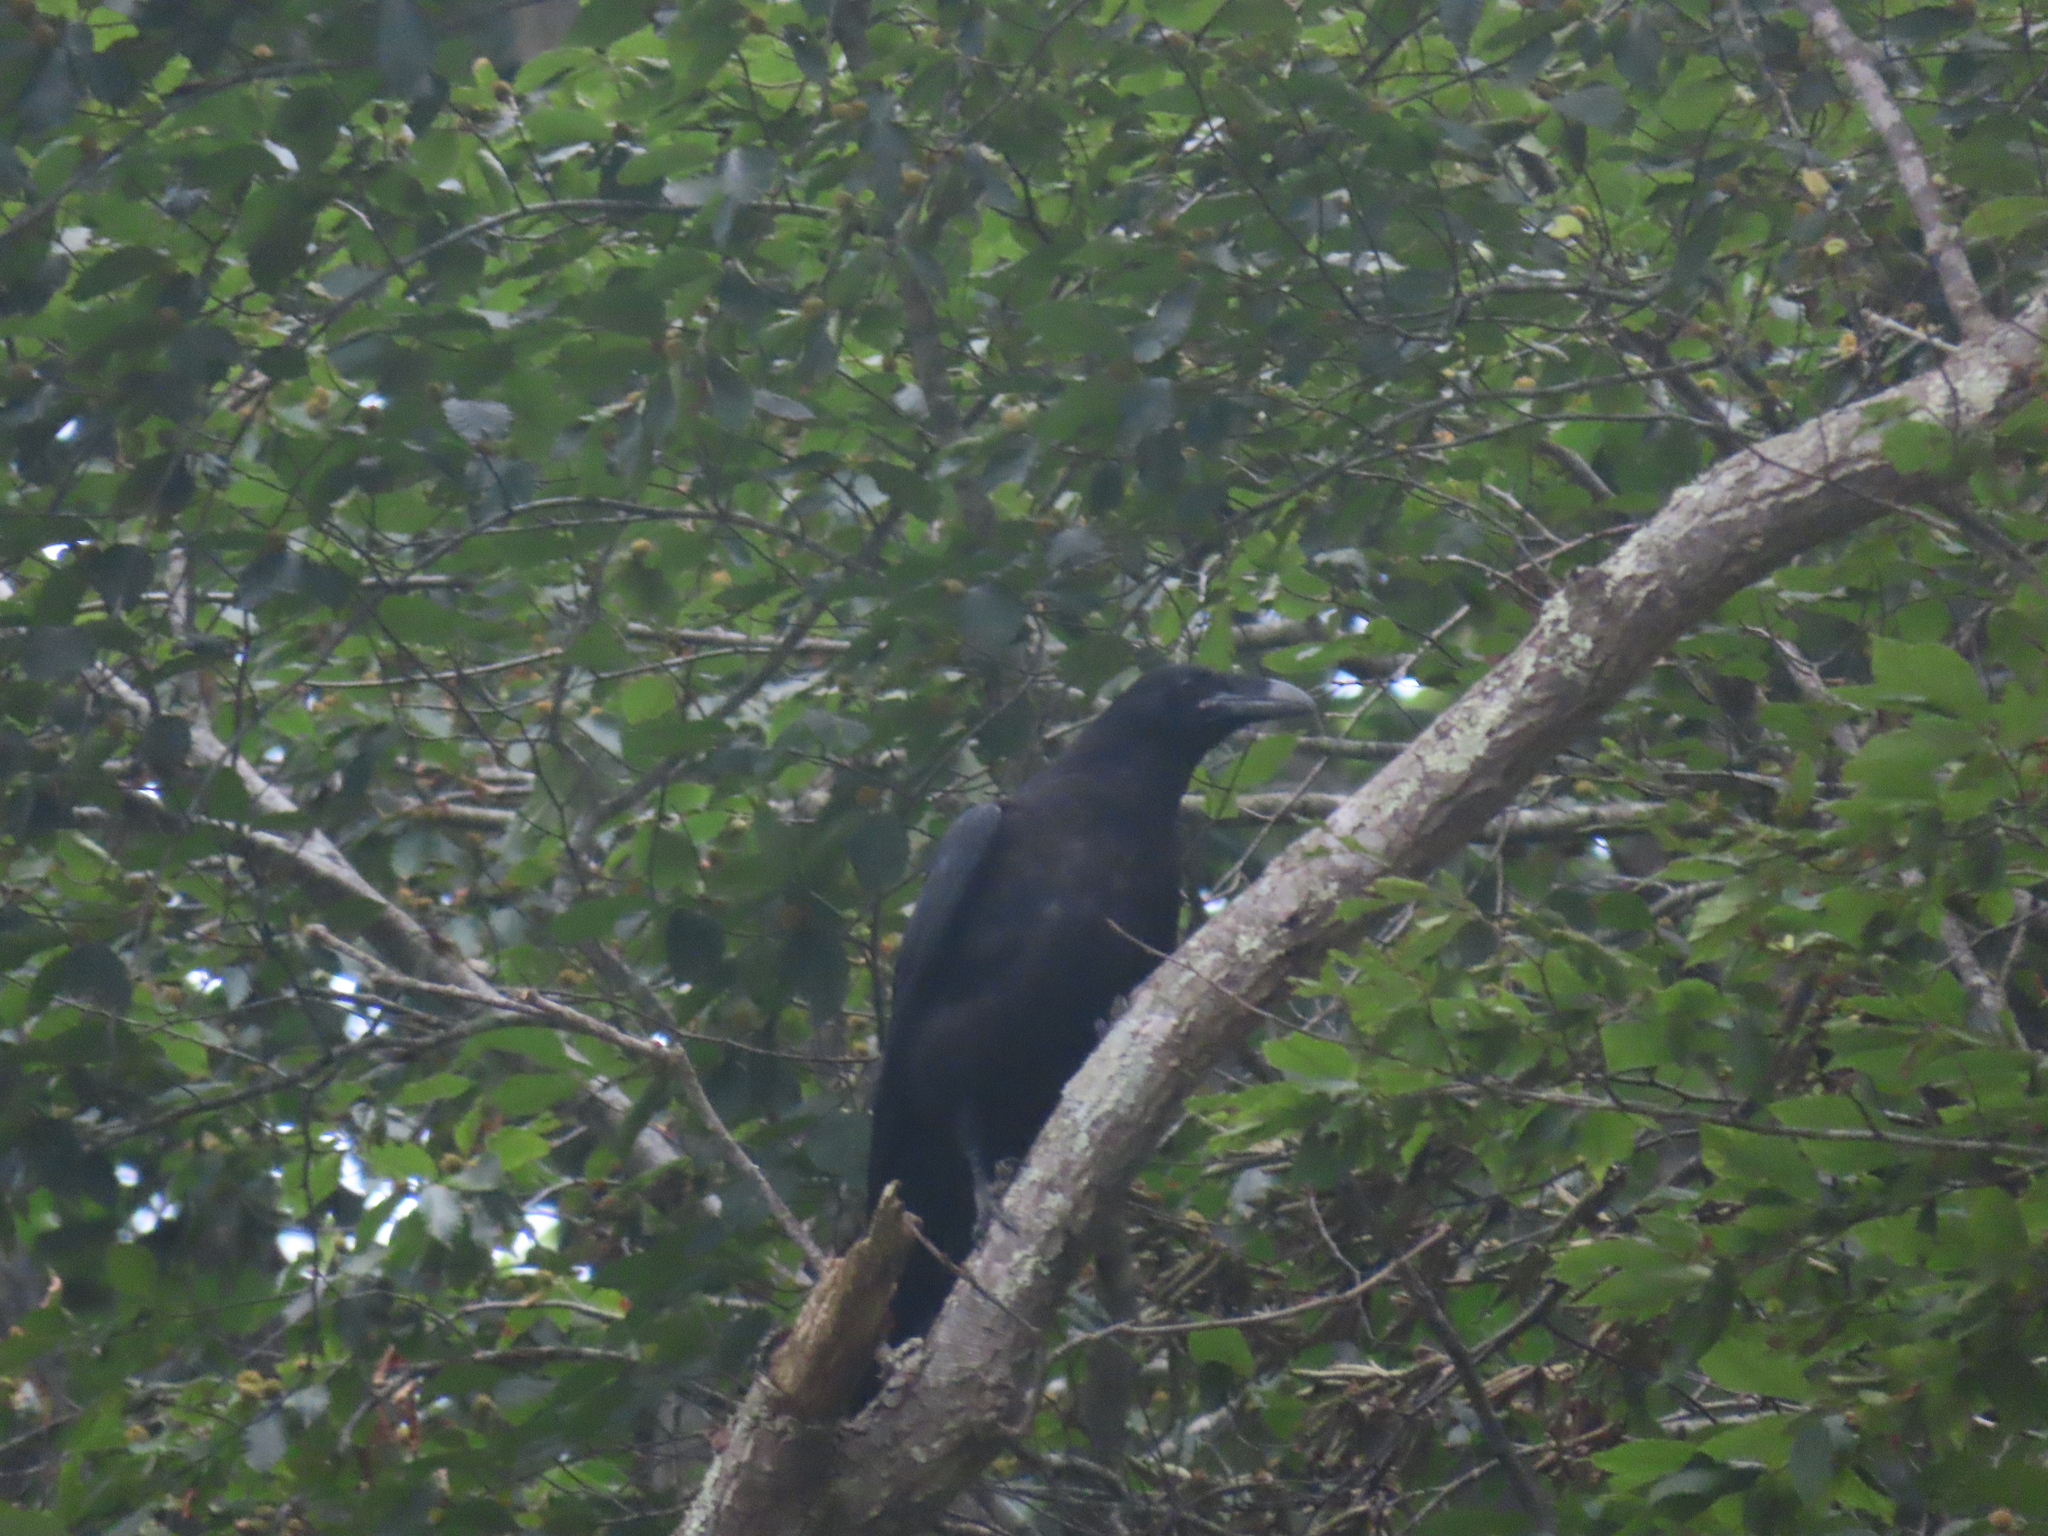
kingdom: Animalia
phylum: Chordata
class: Aves
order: Passeriformes
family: Corvidae
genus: Corvus
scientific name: Corvus corax
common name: Common raven
